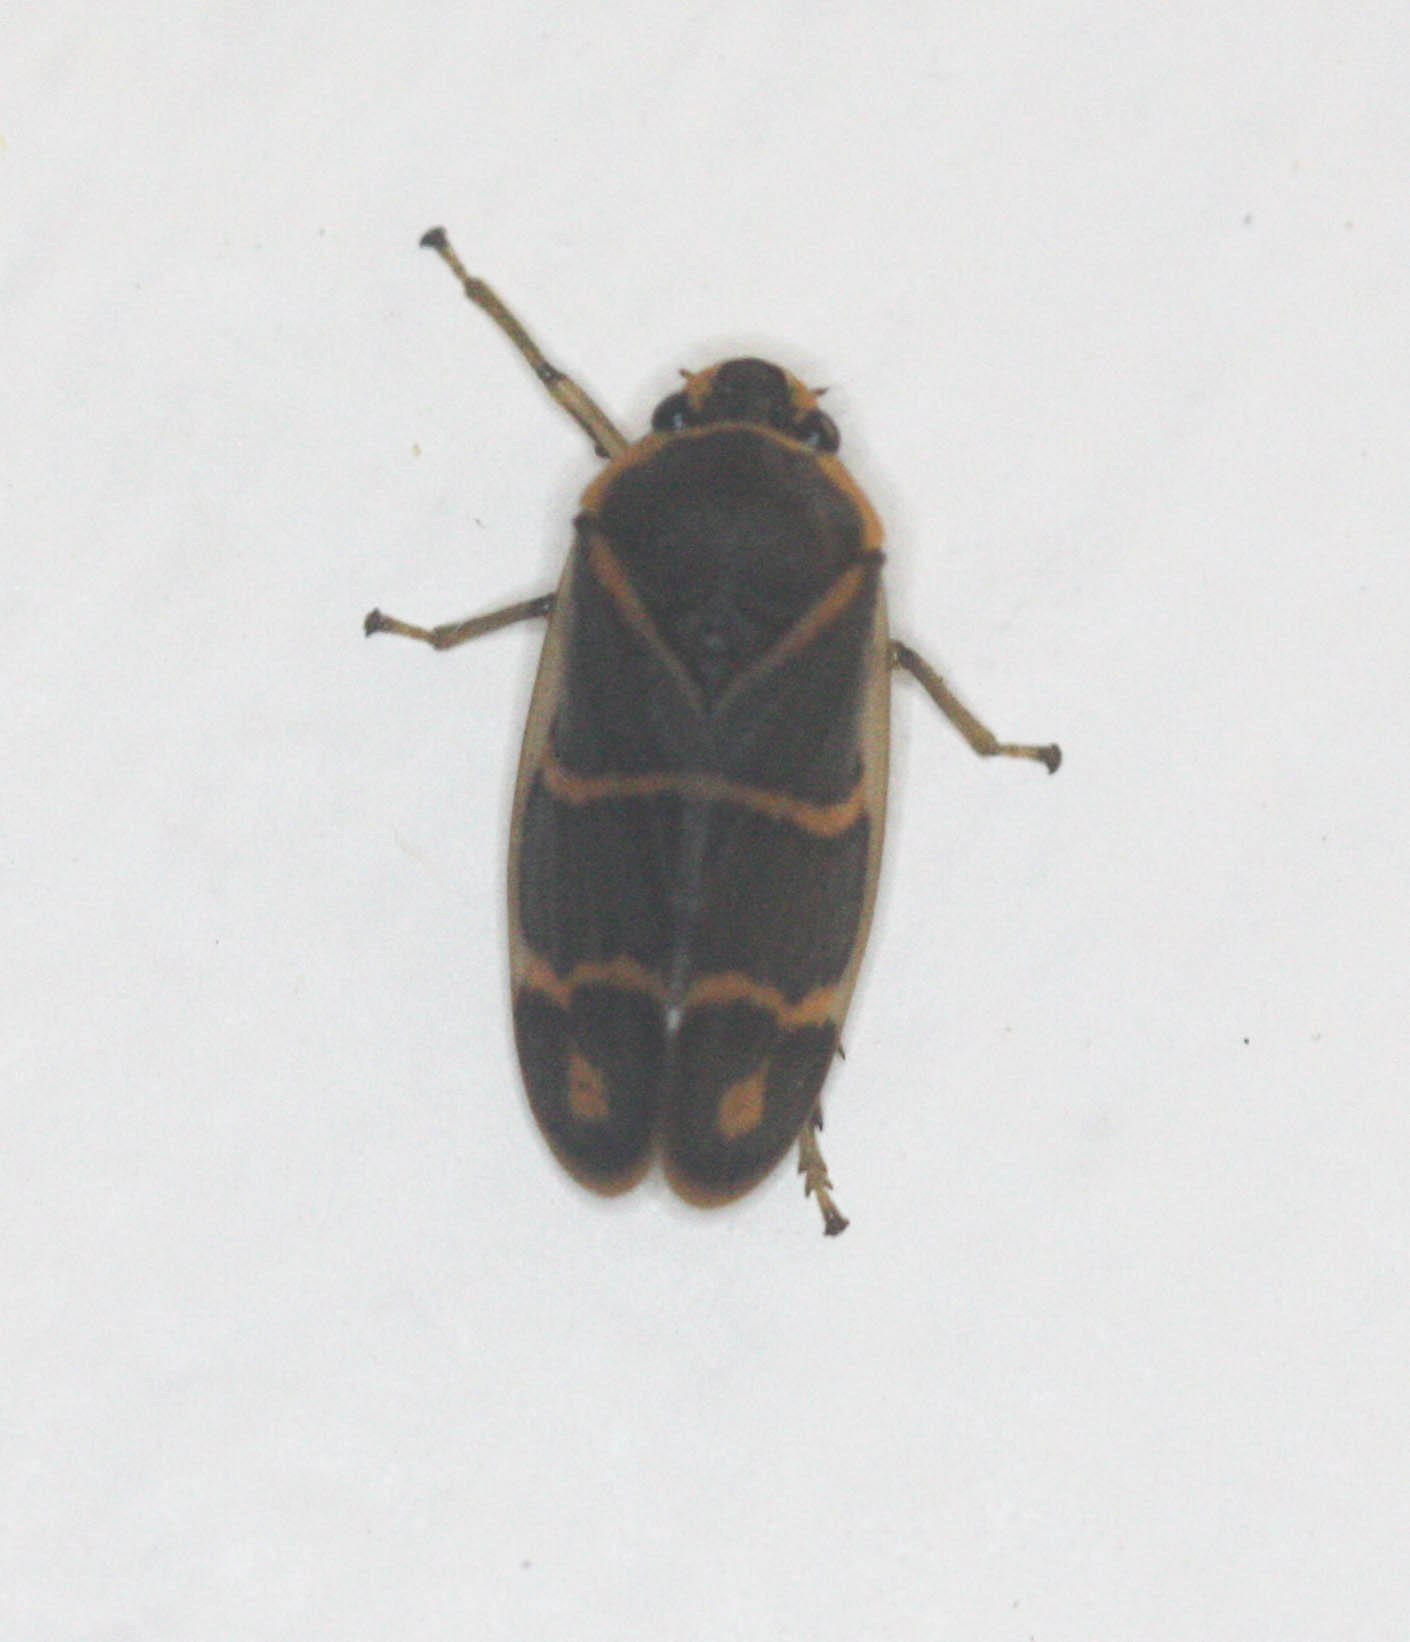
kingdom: Animalia
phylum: Arthropoda
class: Insecta
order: Hemiptera
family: Cercopidae
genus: Phymatostetha
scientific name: Phymatostetha borneensis
